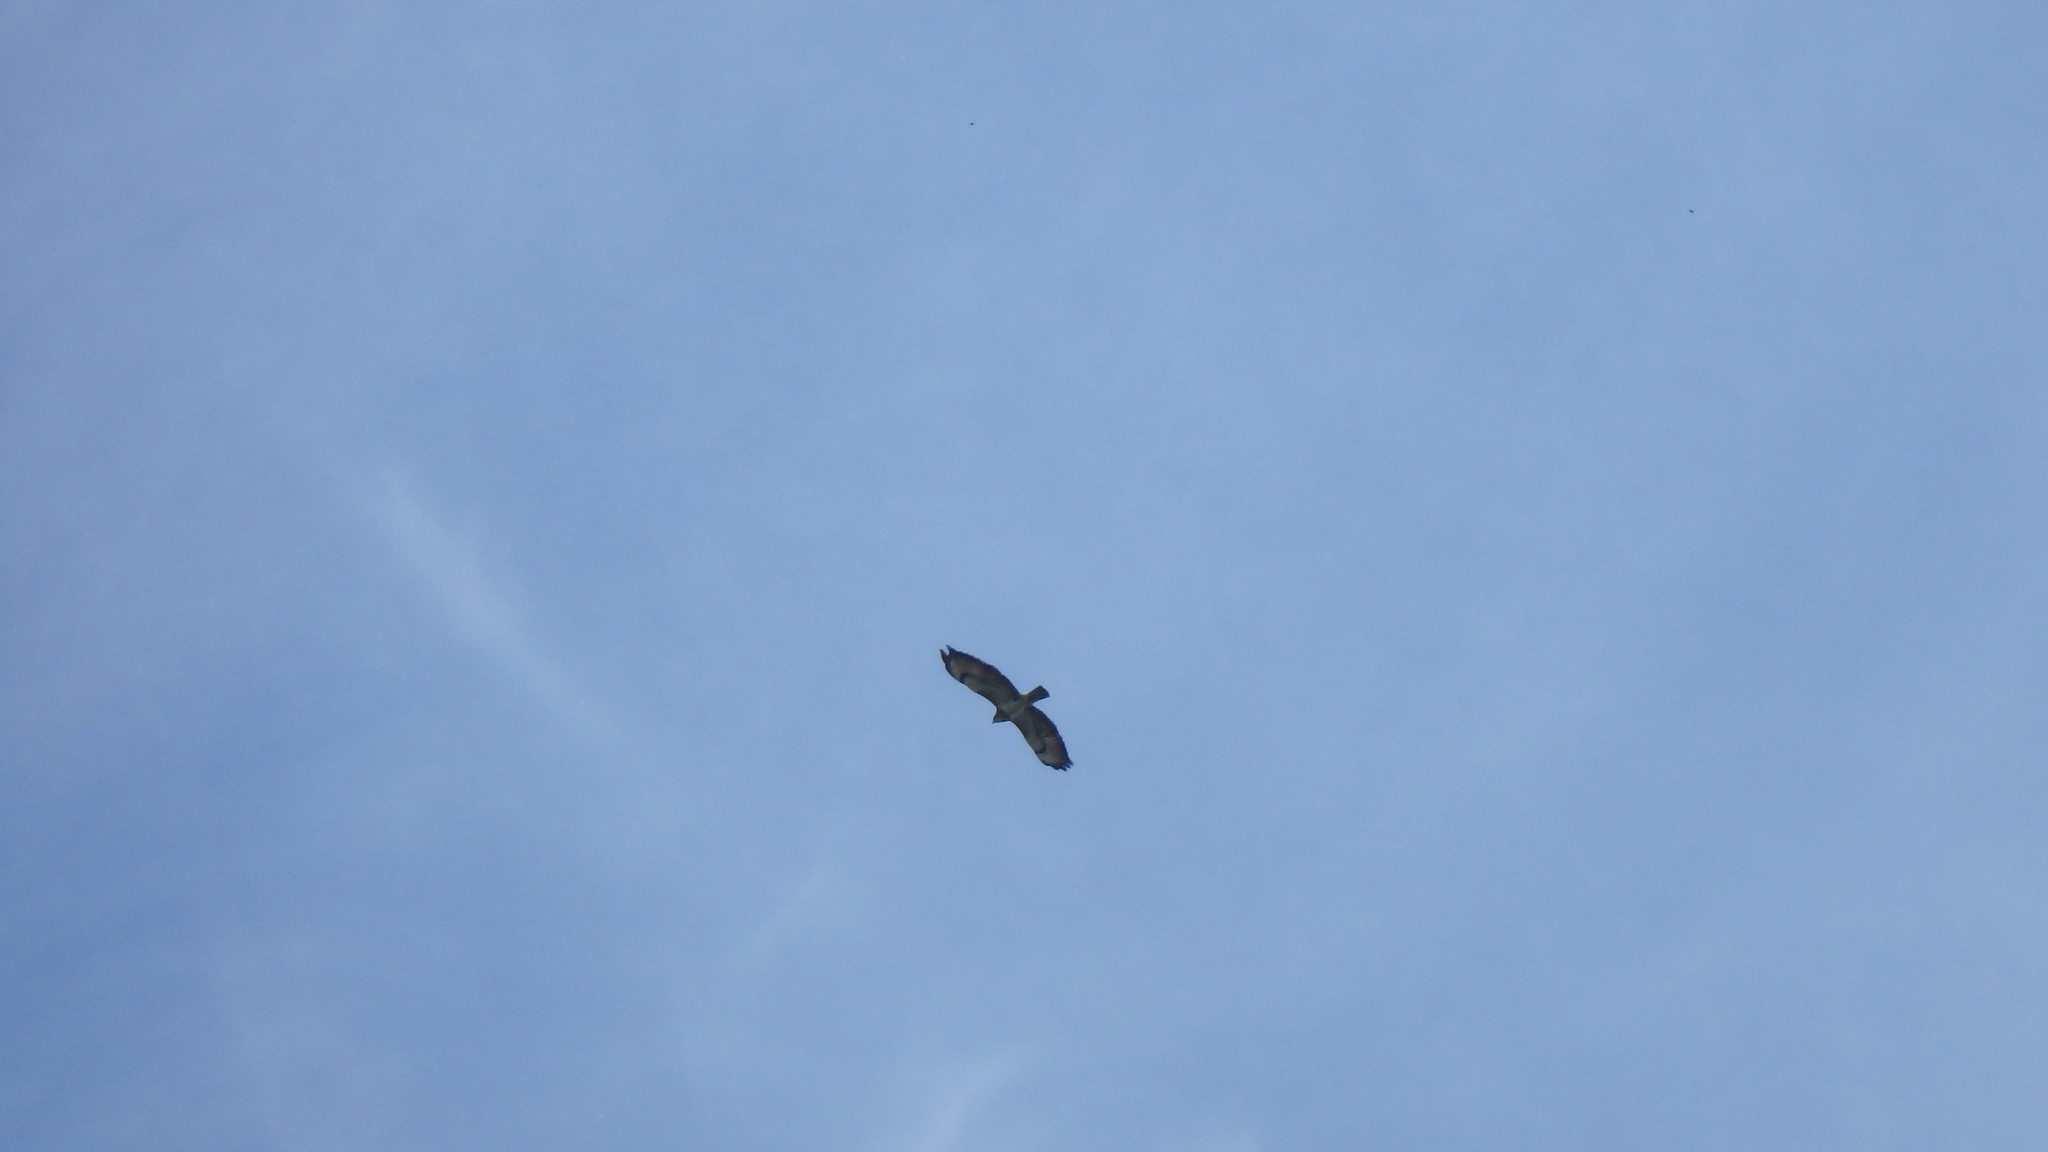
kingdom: Animalia
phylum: Chordata
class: Aves
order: Accipitriformes
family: Accipitridae
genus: Buteo
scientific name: Buteo buteo
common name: Common buzzard
